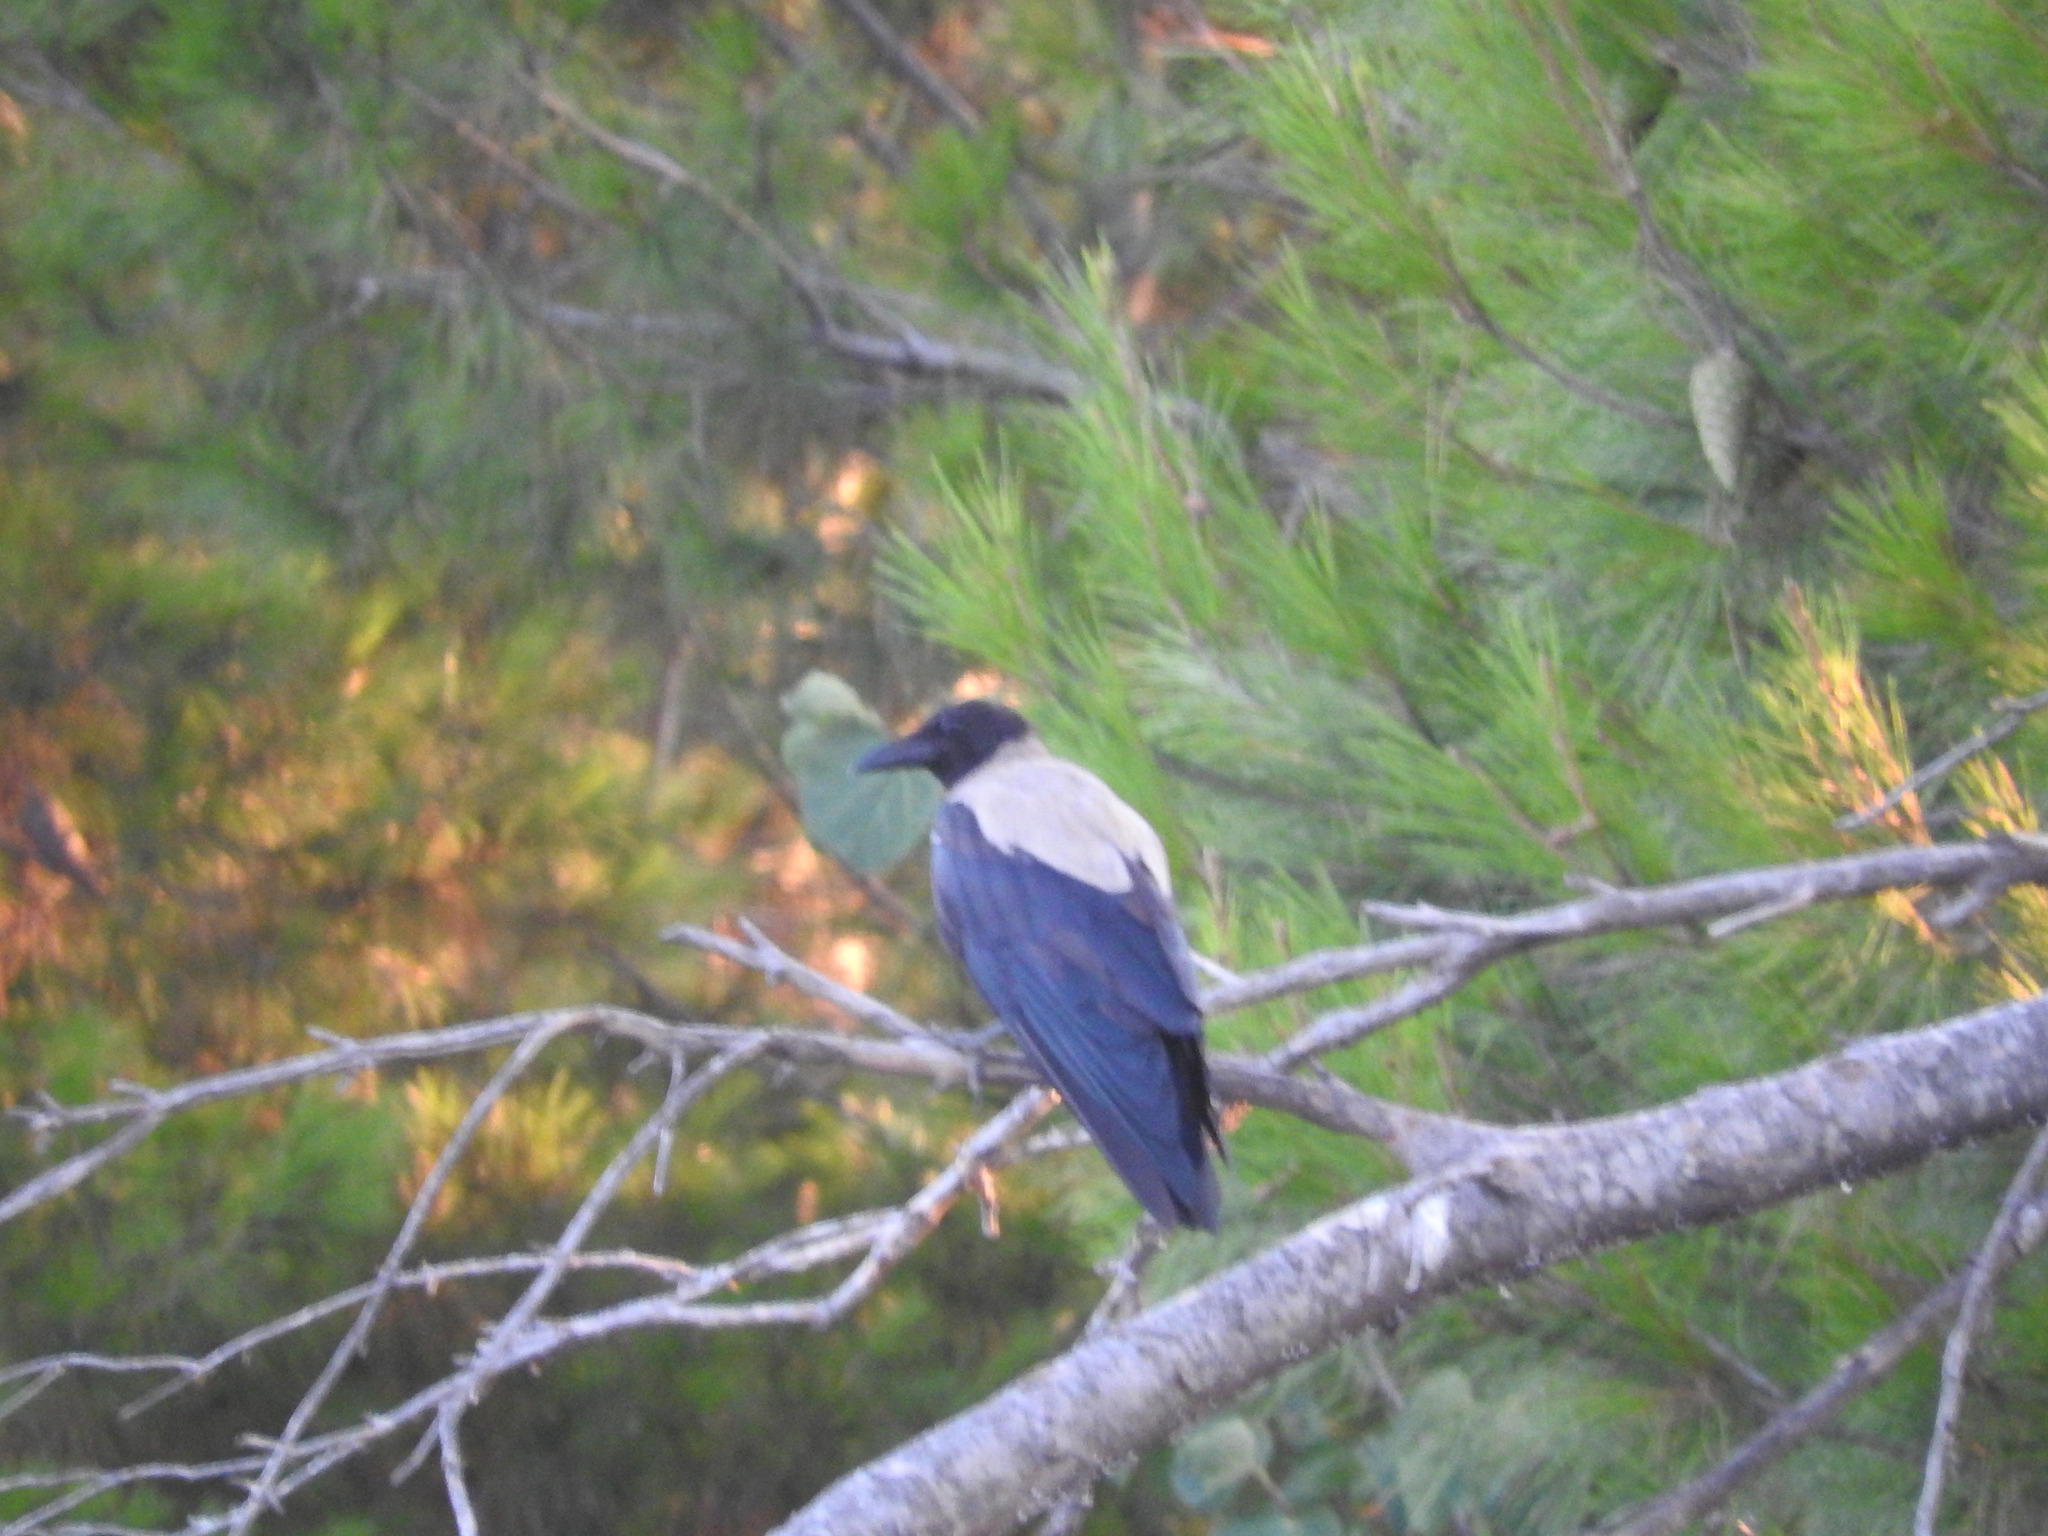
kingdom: Animalia
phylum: Chordata
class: Aves
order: Passeriformes
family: Corvidae
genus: Corvus
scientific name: Corvus cornix
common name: Hooded crow
